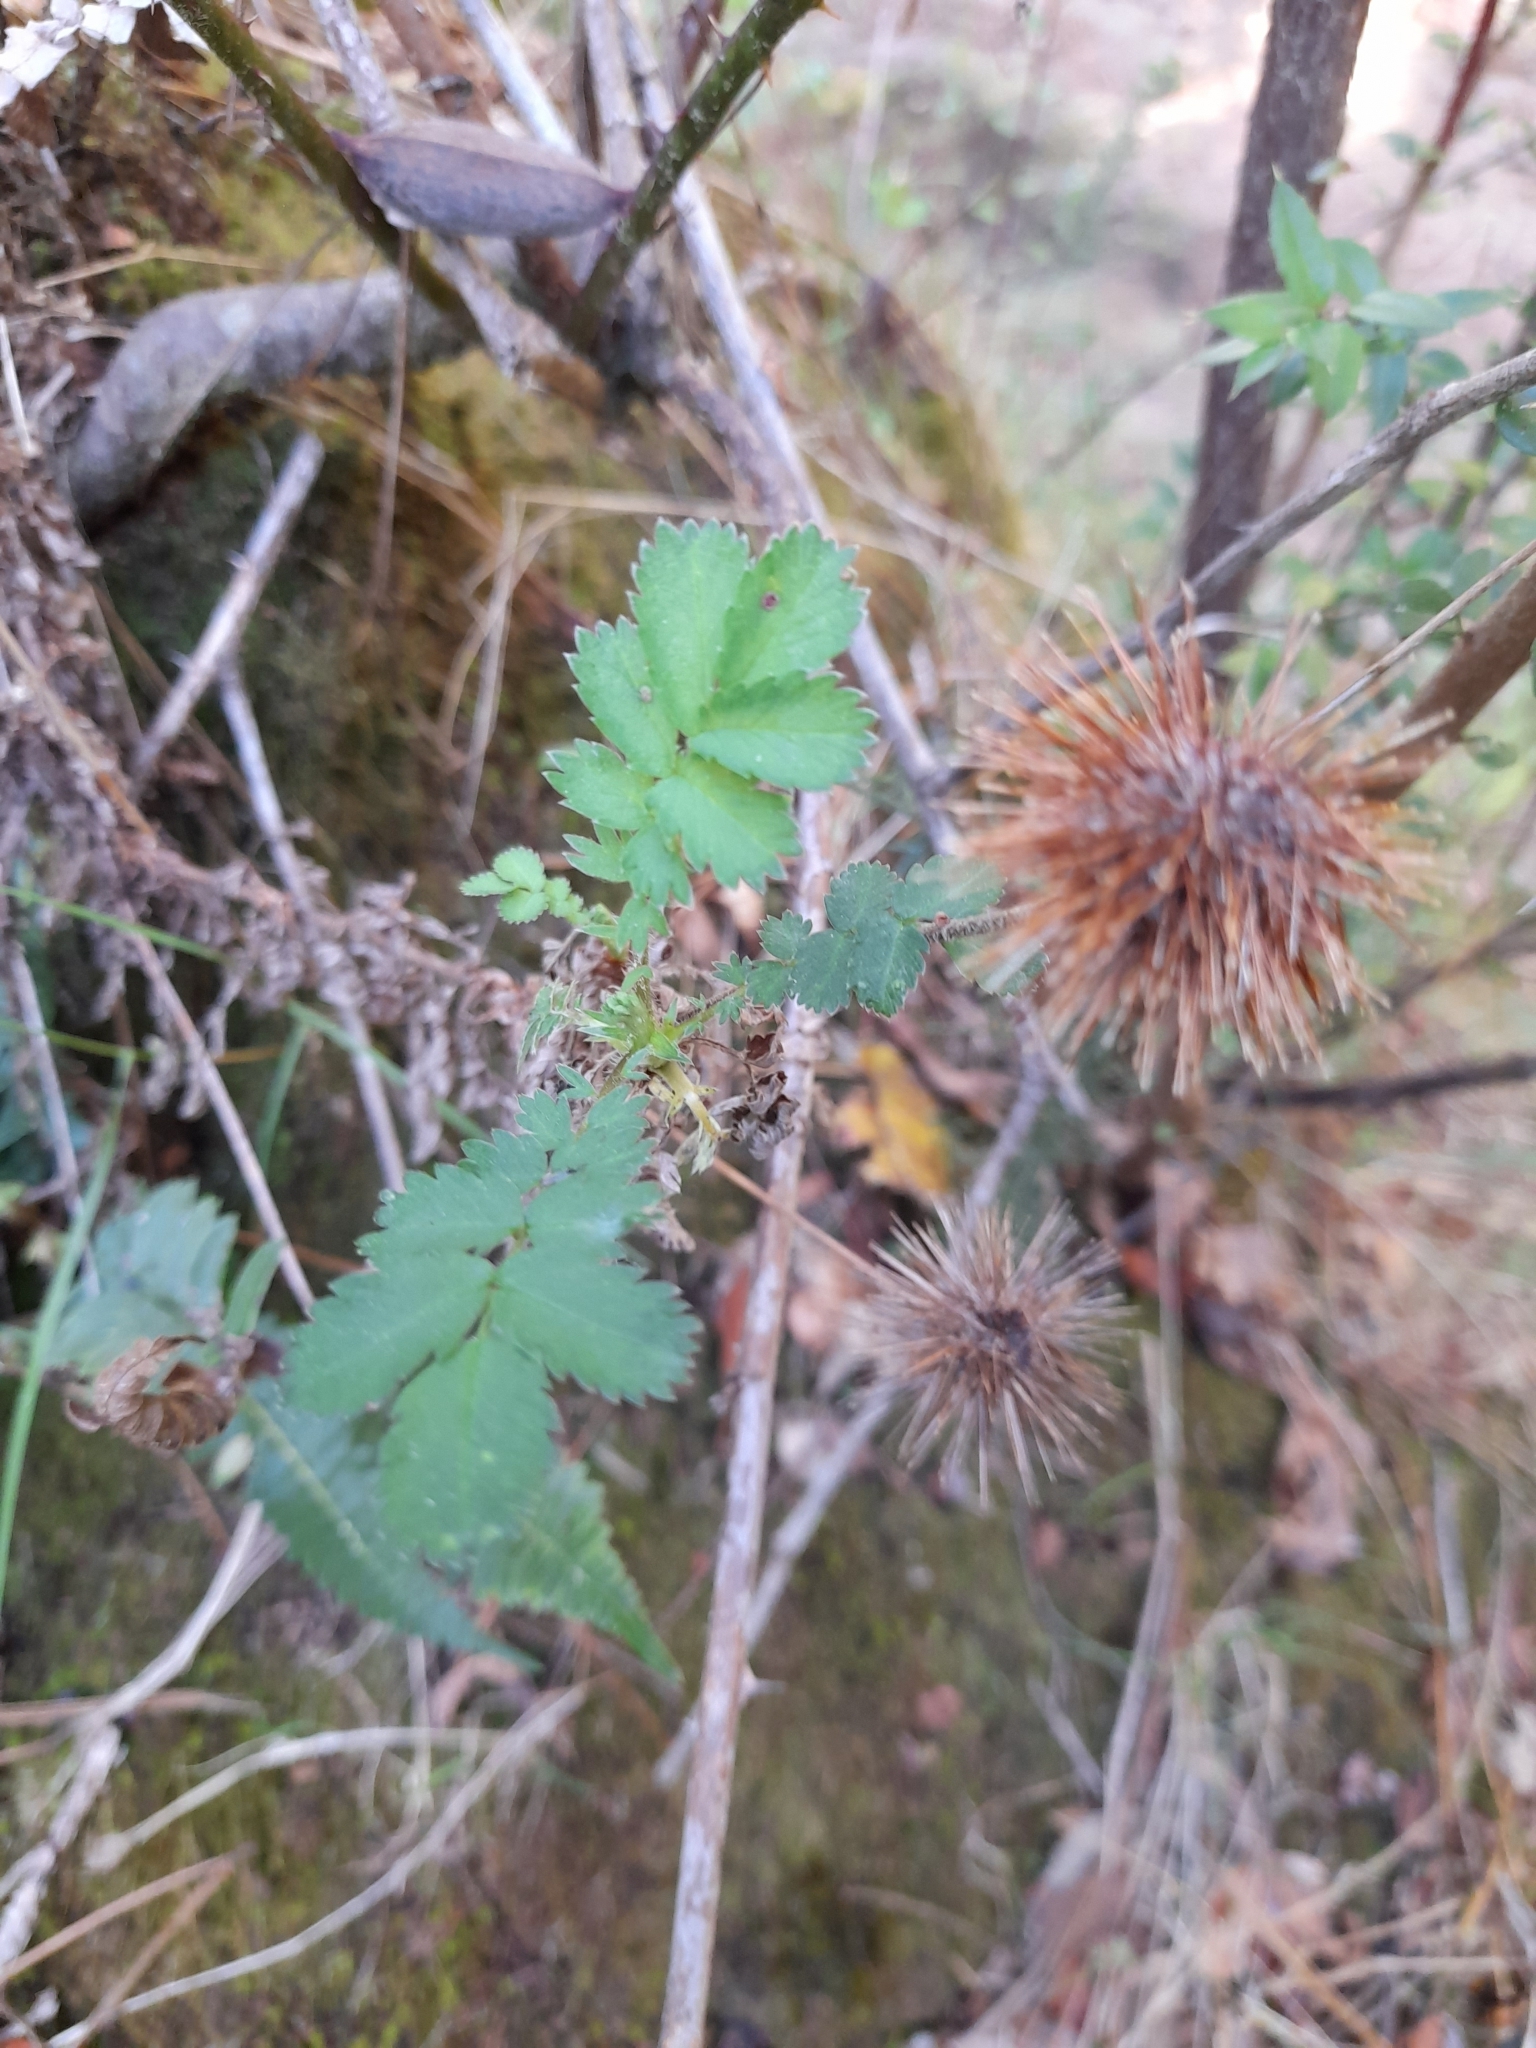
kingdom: Plantae
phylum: Tracheophyta
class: Magnoliopsida
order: Rosales
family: Rosaceae
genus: Acaena
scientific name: Acaena ovalifolia
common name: Two-spined acaena
